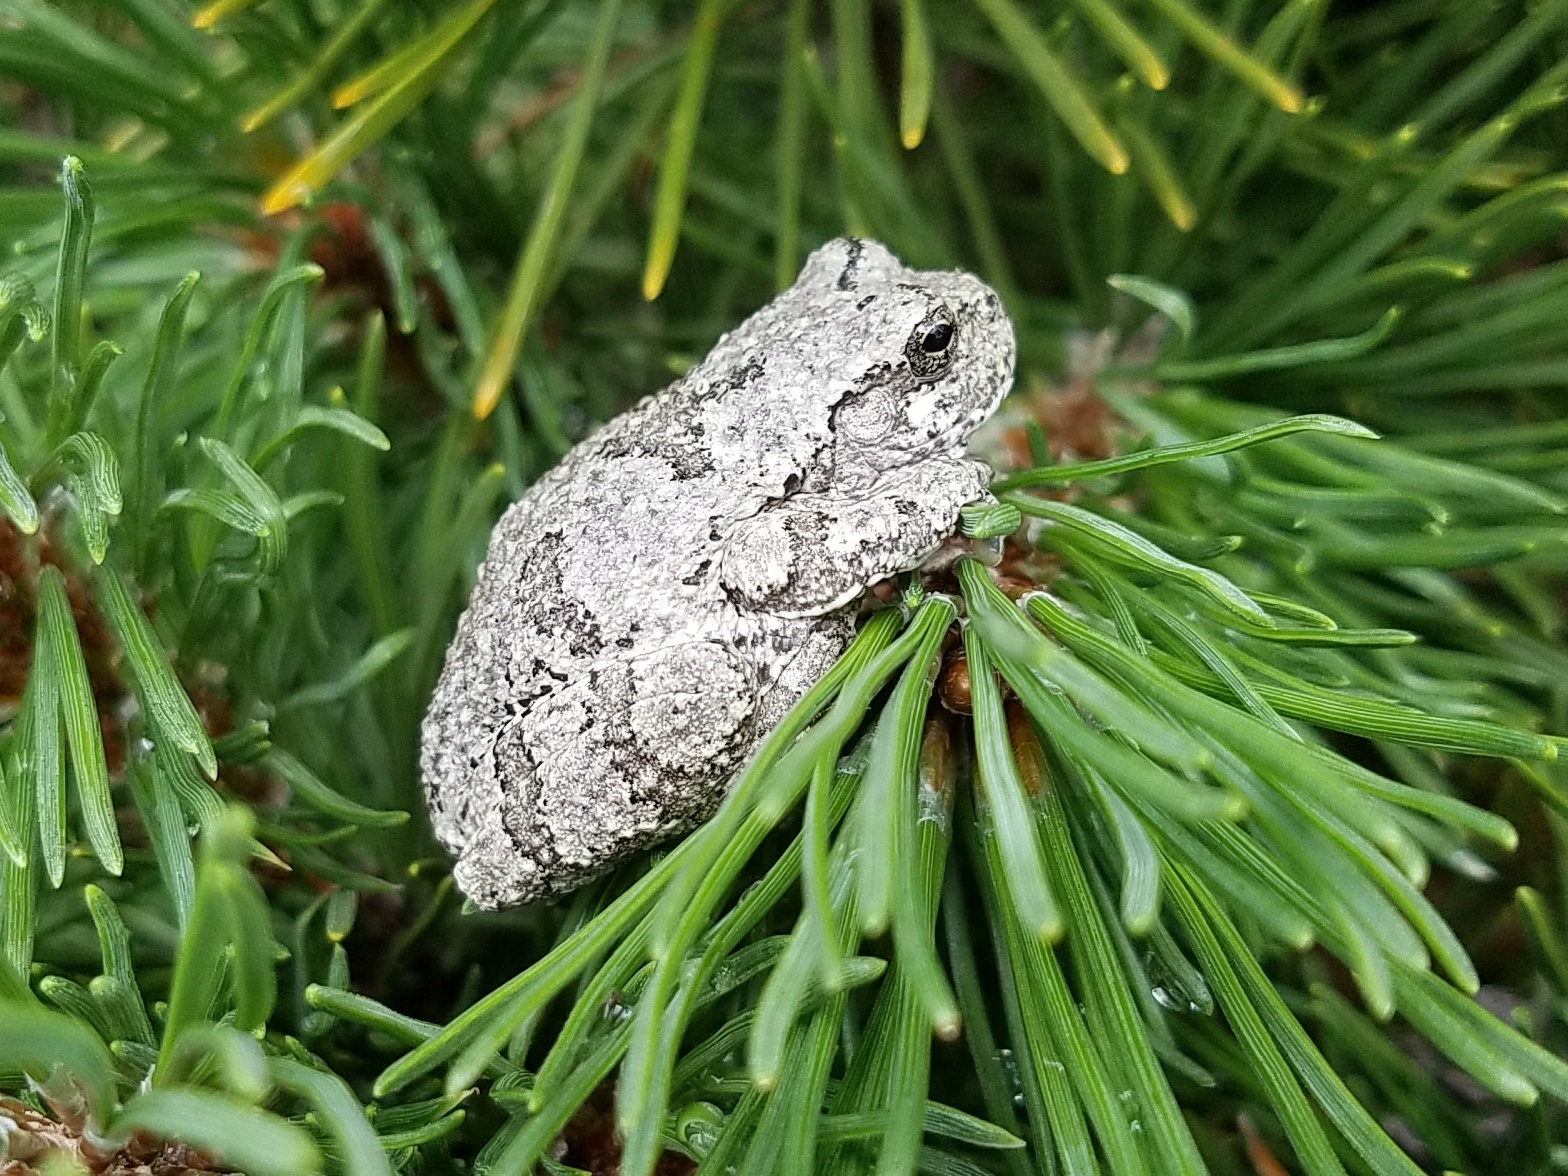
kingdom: Animalia
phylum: Chordata
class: Amphibia
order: Anura
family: Hylidae
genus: Dryophytes
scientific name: Dryophytes chrysoscelis
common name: Cope's gray treefrog
